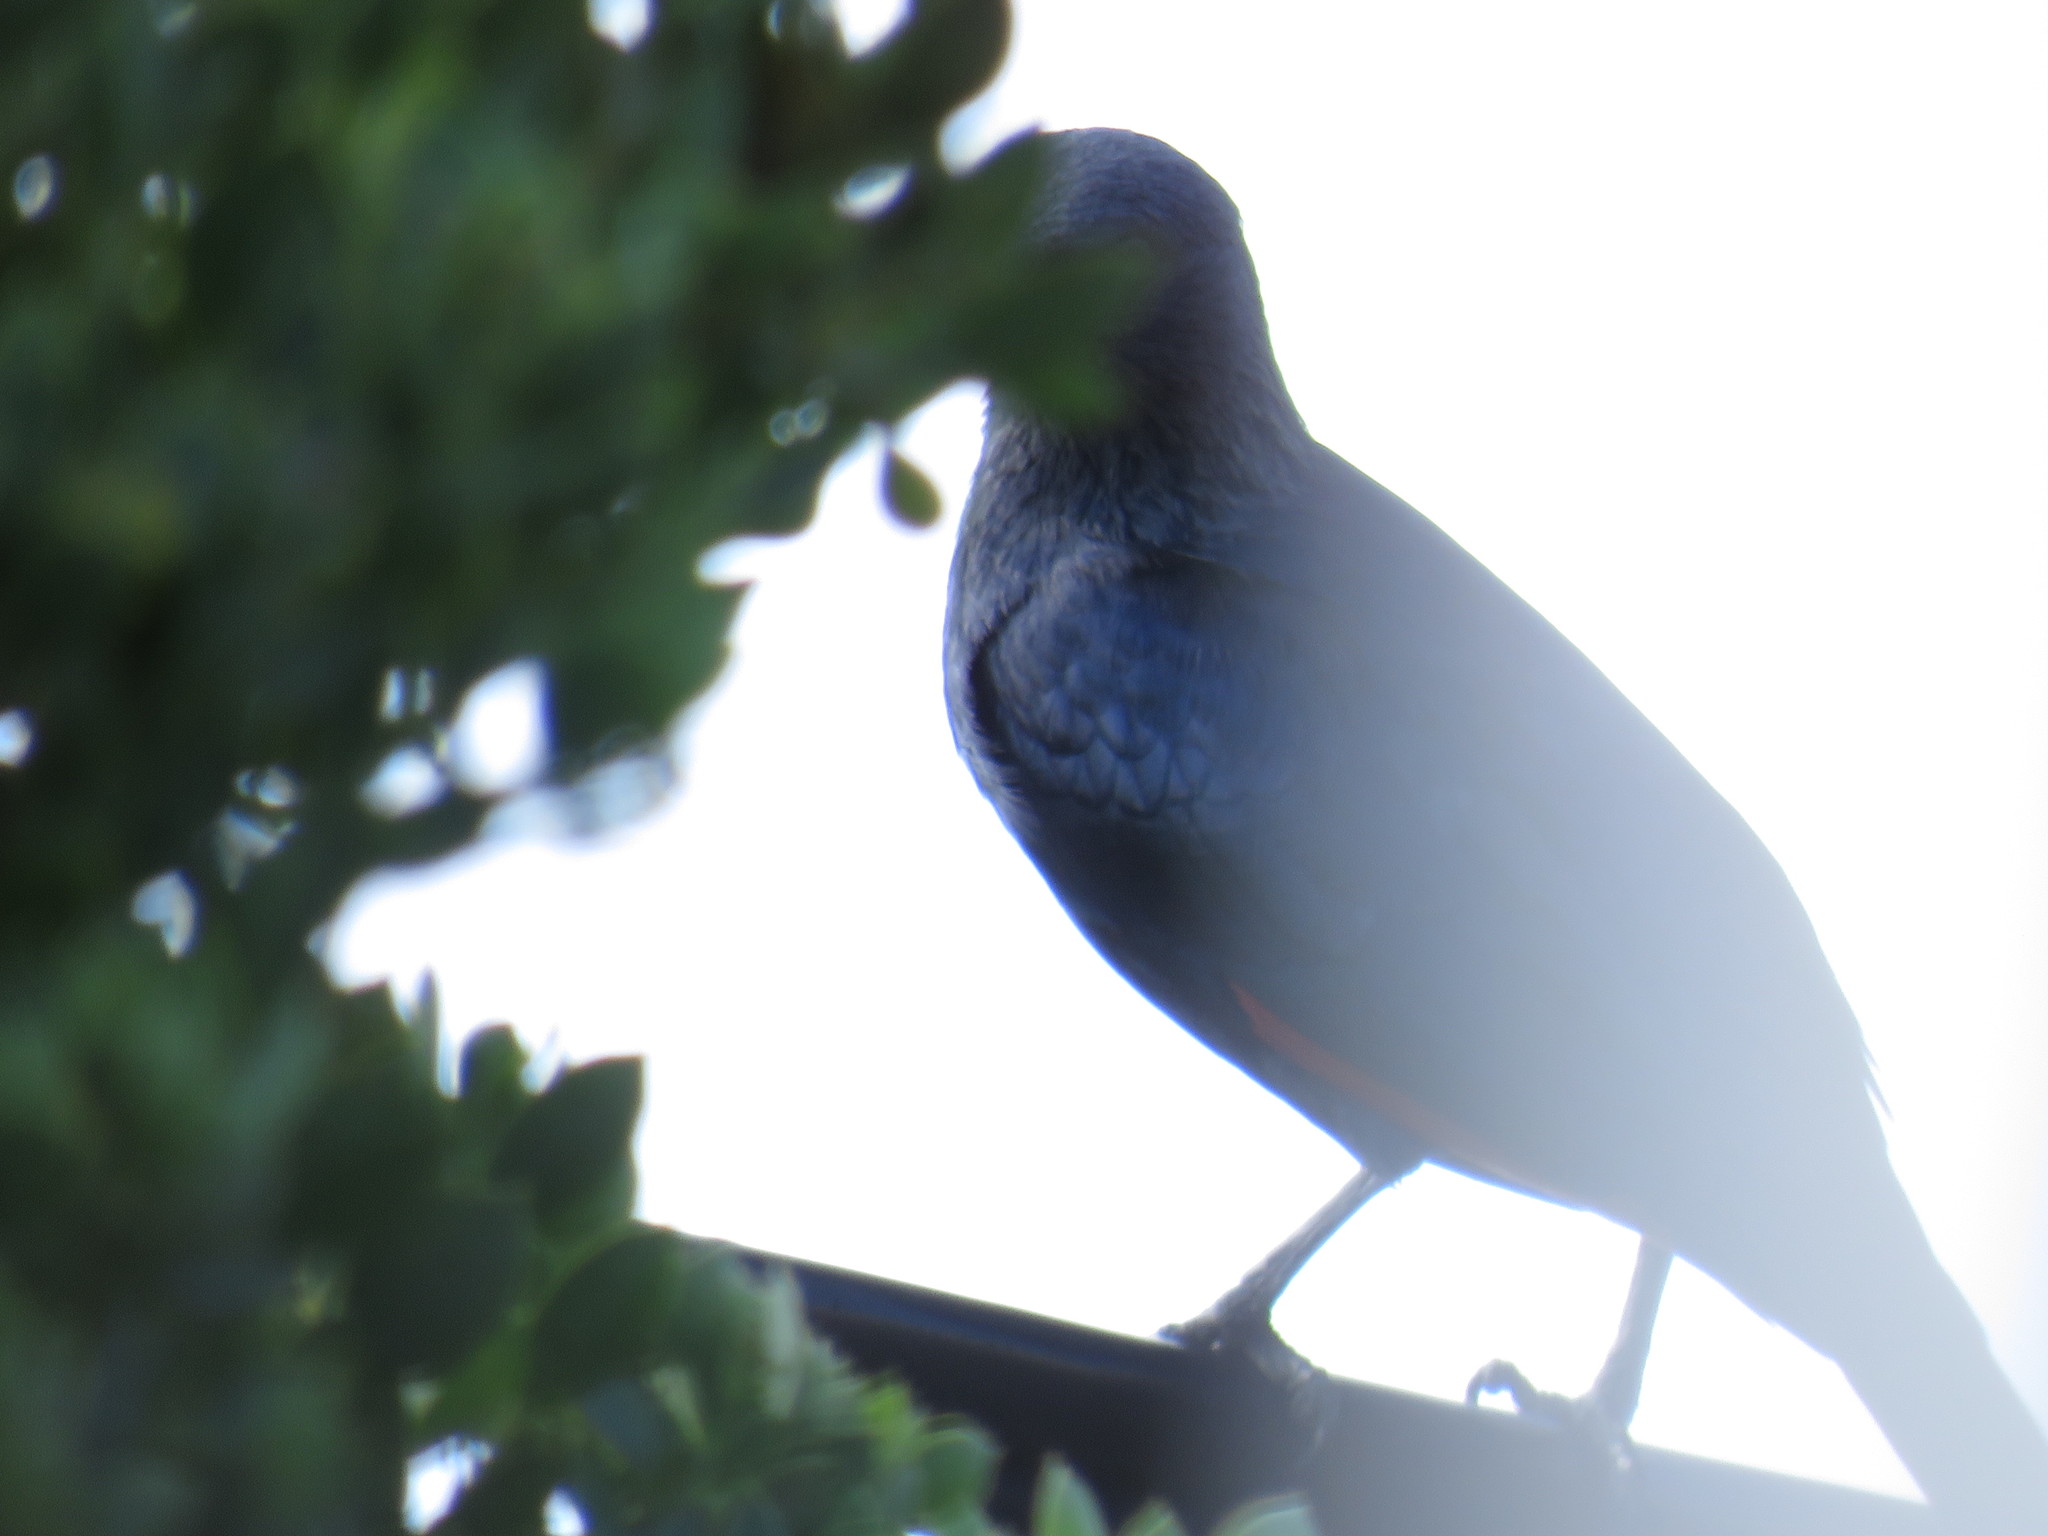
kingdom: Animalia
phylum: Chordata
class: Aves
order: Passeriformes
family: Sturnidae
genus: Onychognathus
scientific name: Onychognathus morio
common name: Red-winged starling
